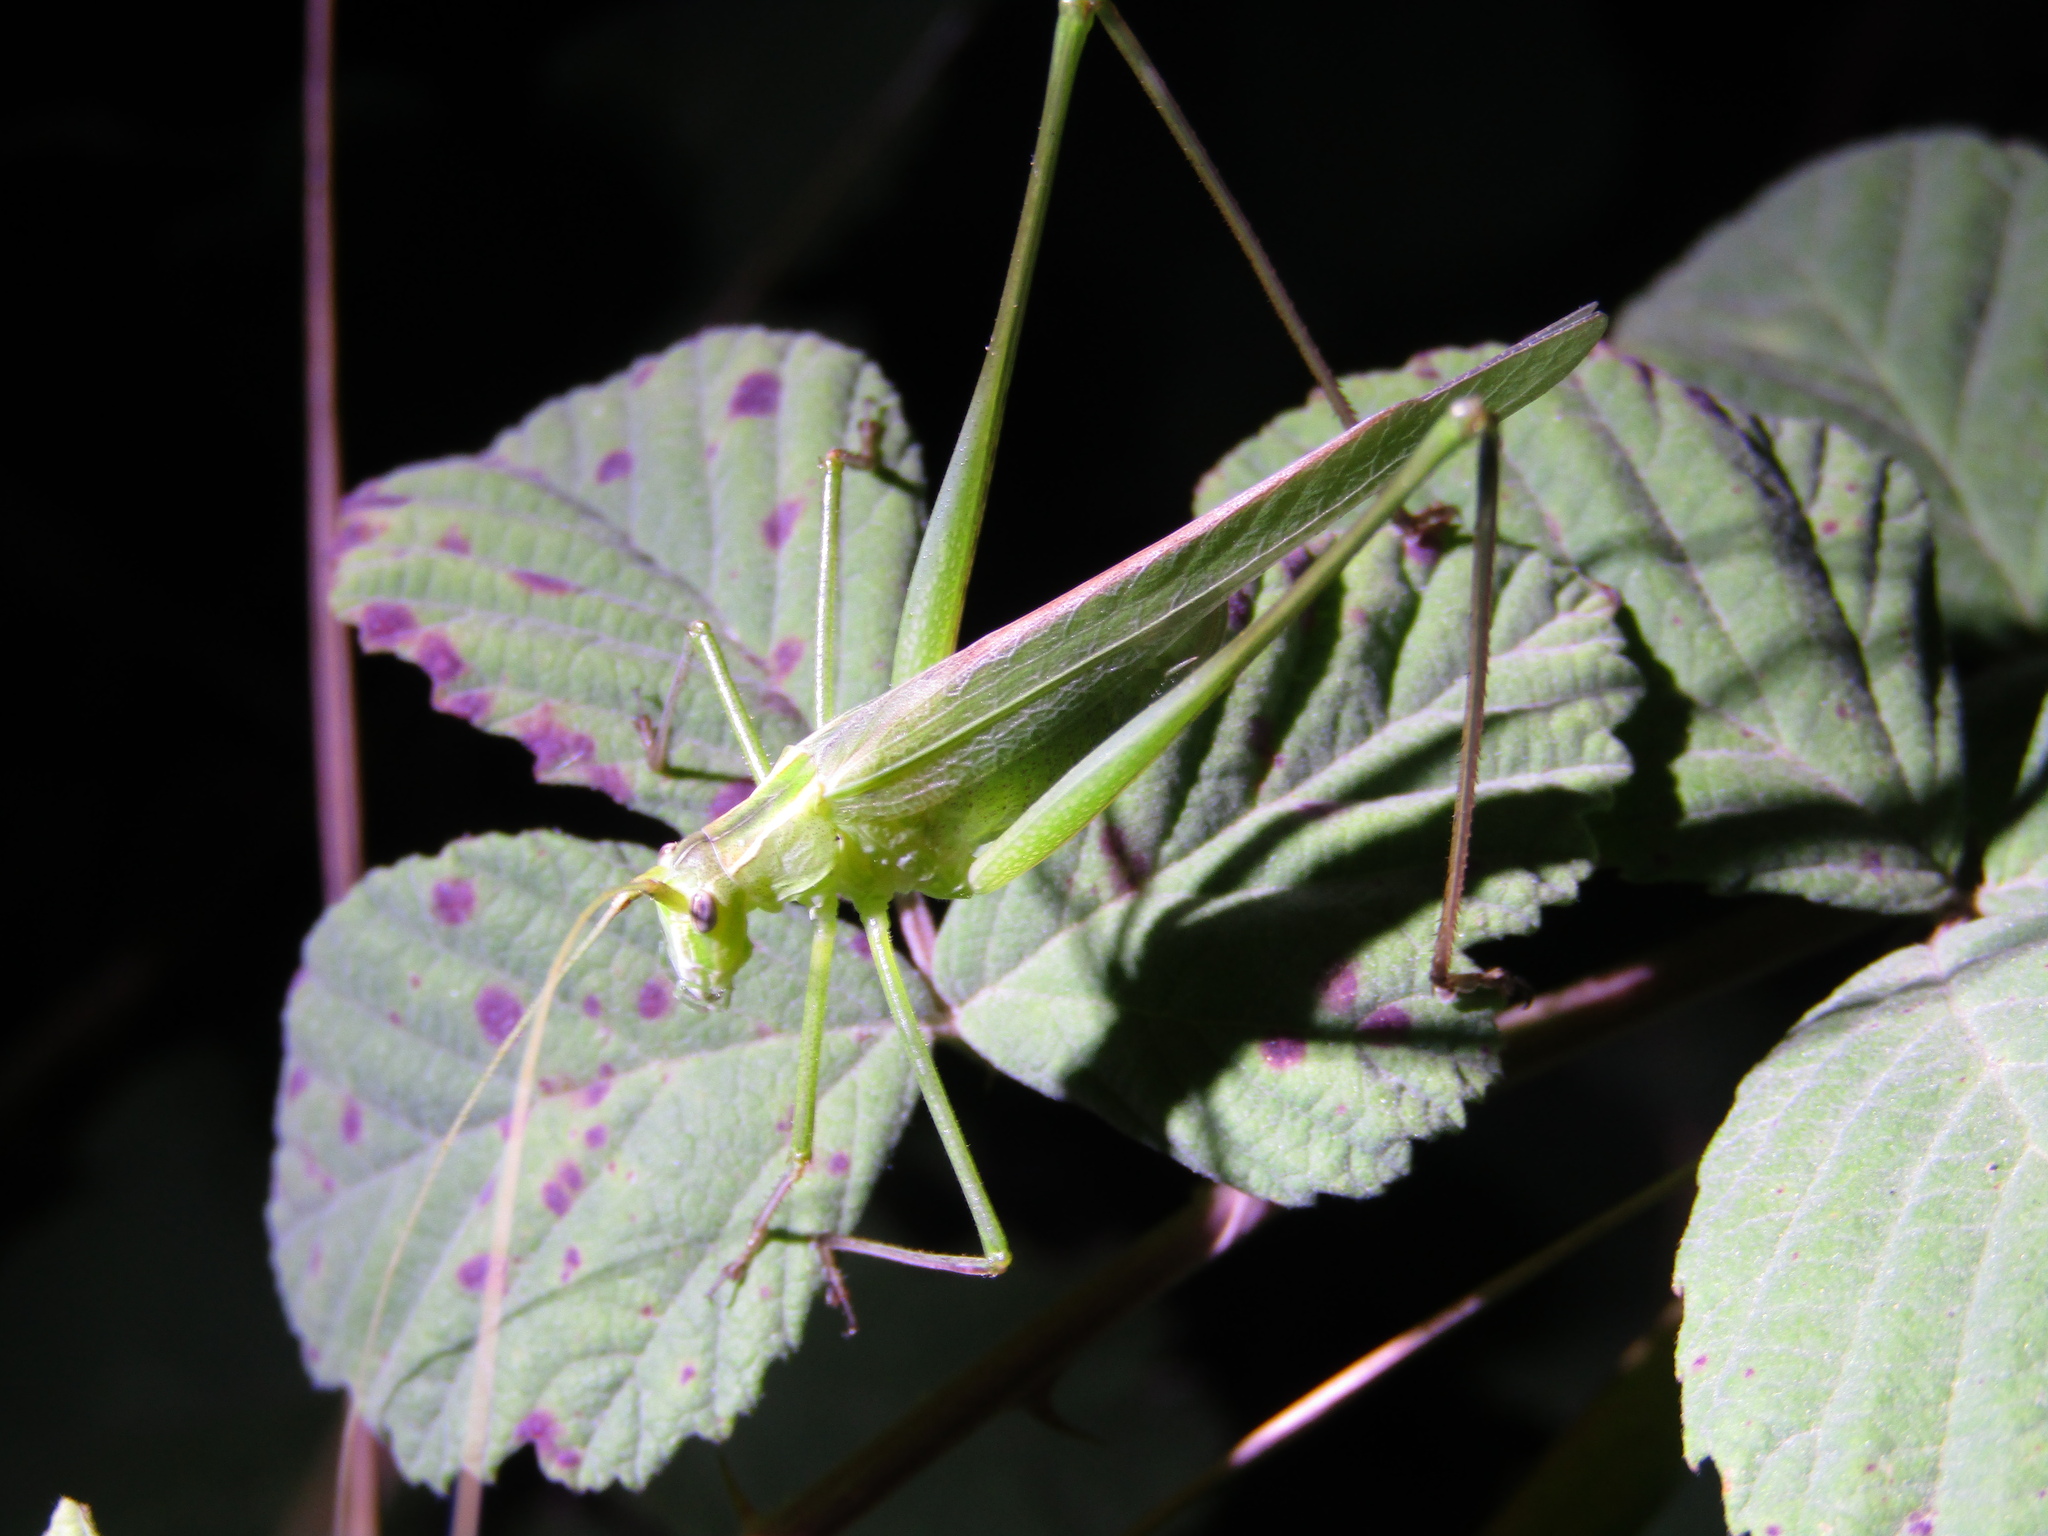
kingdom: Animalia
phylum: Arthropoda
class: Insecta
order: Orthoptera
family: Tettigoniidae
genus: Tylopsis
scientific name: Tylopsis lilifolia
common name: Lily bush-cricket
